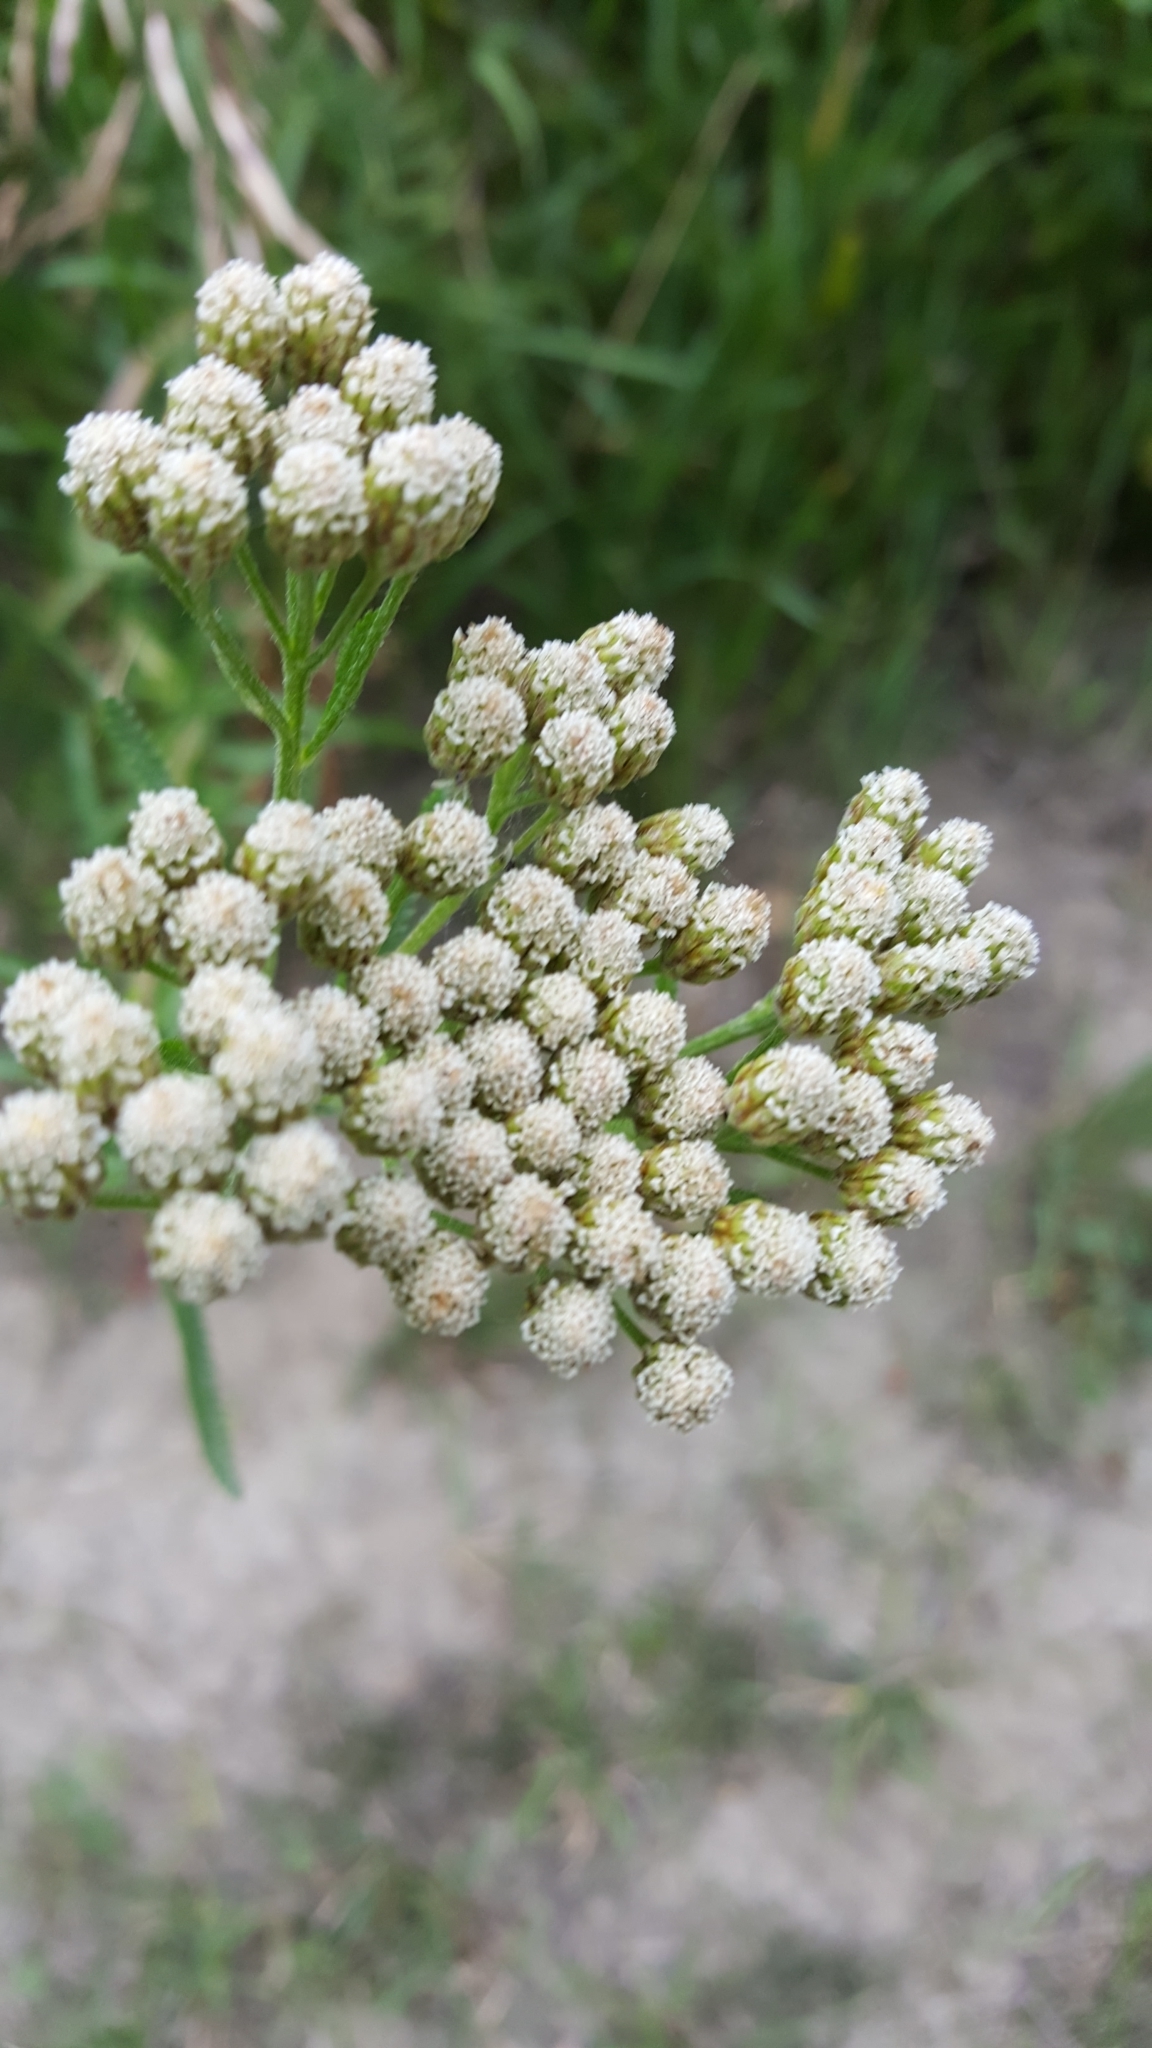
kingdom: Plantae
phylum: Tracheophyta
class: Magnoliopsida
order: Asterales
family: Asteraceae
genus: Achillea
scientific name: Achillea alpina
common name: Siberian yarrow
